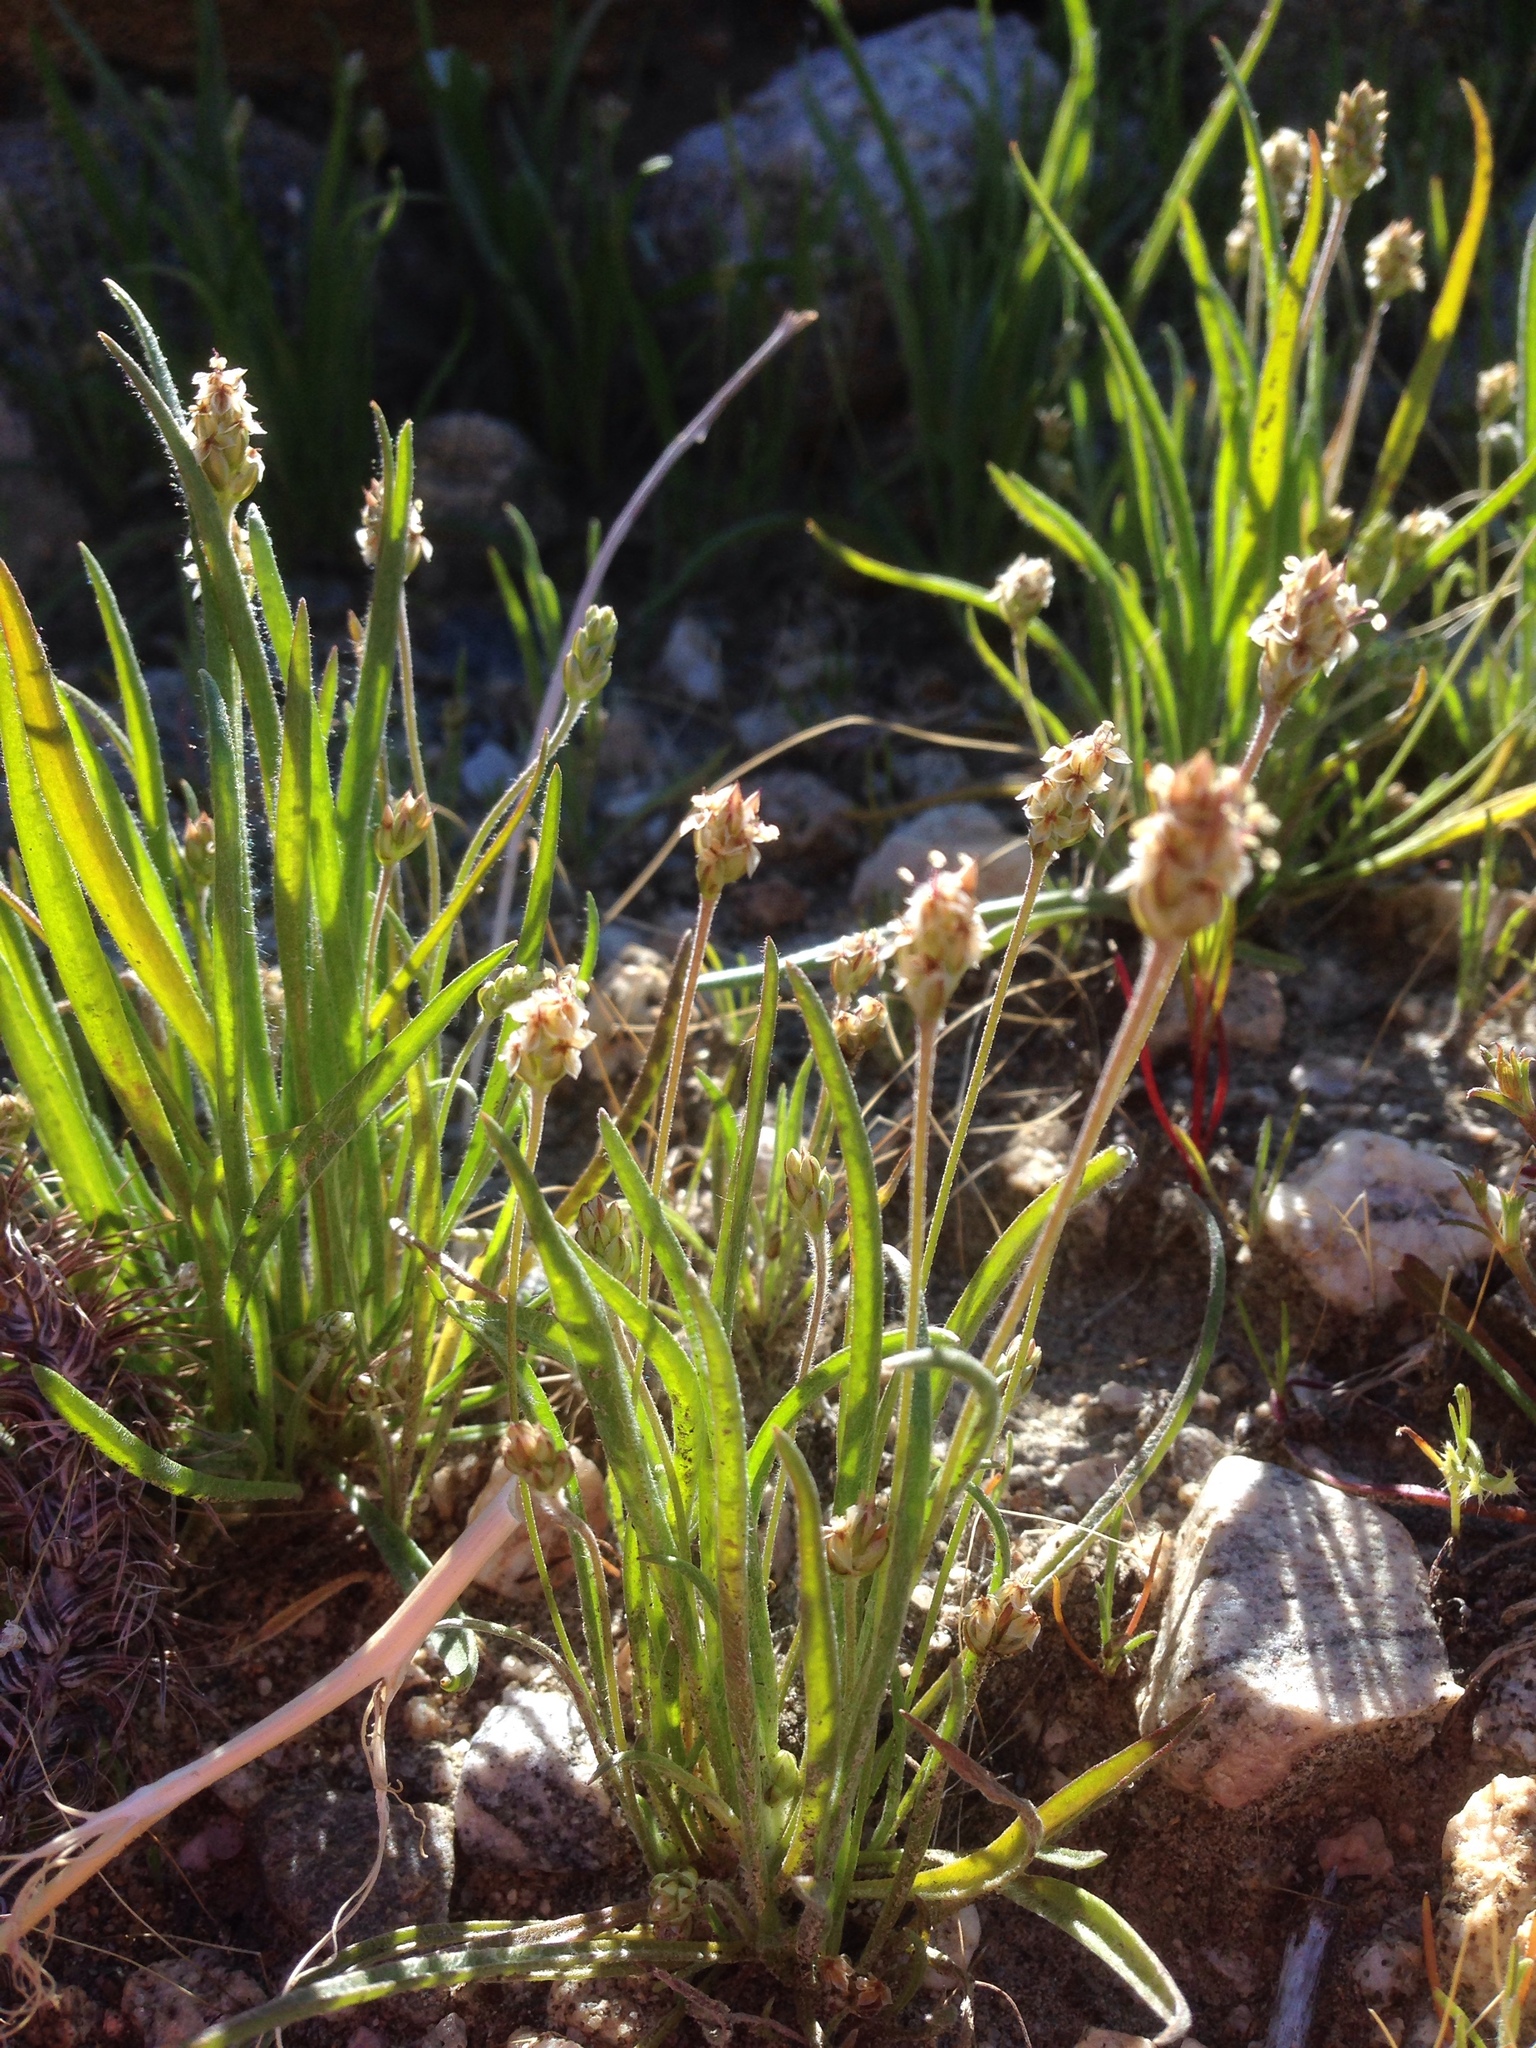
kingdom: Plantae
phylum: Tracheophyta
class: Magnoliopsida
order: Lamiales
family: Plantaginaceae
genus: Plantago
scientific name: Plantago ovata
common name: Blond plantain
